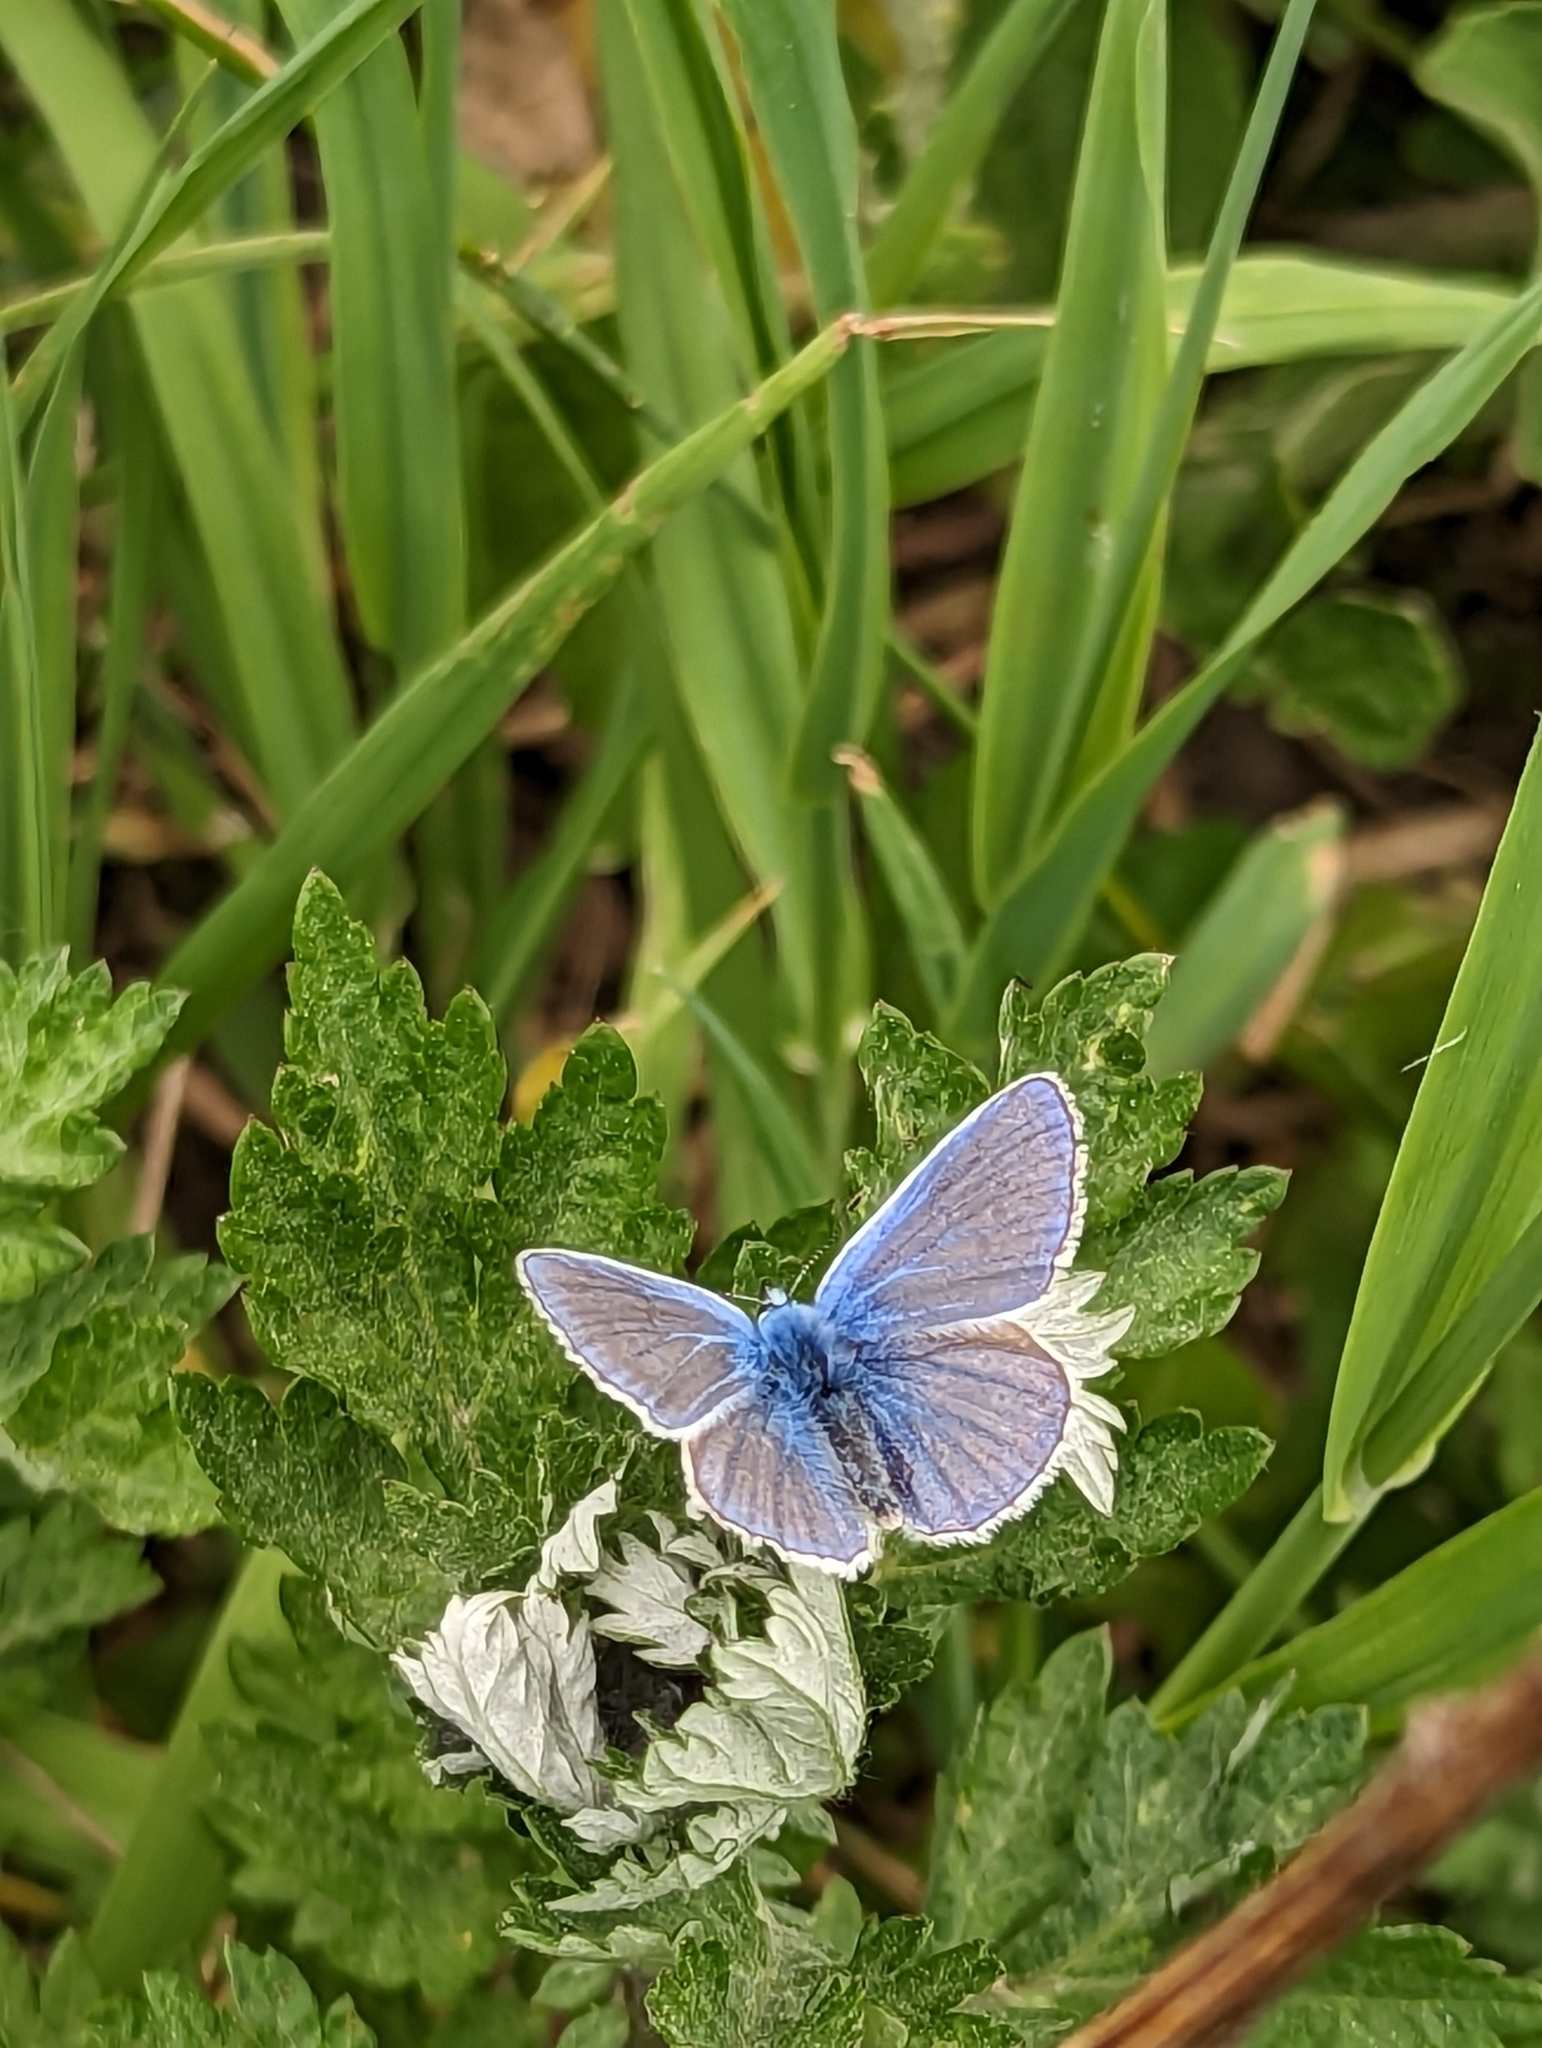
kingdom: Animalia
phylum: Arthropoda
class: Insecta
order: Lepidoptera
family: Lycaenidae
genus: Polyommatus
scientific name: Polyommatus icarus
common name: Common blue
